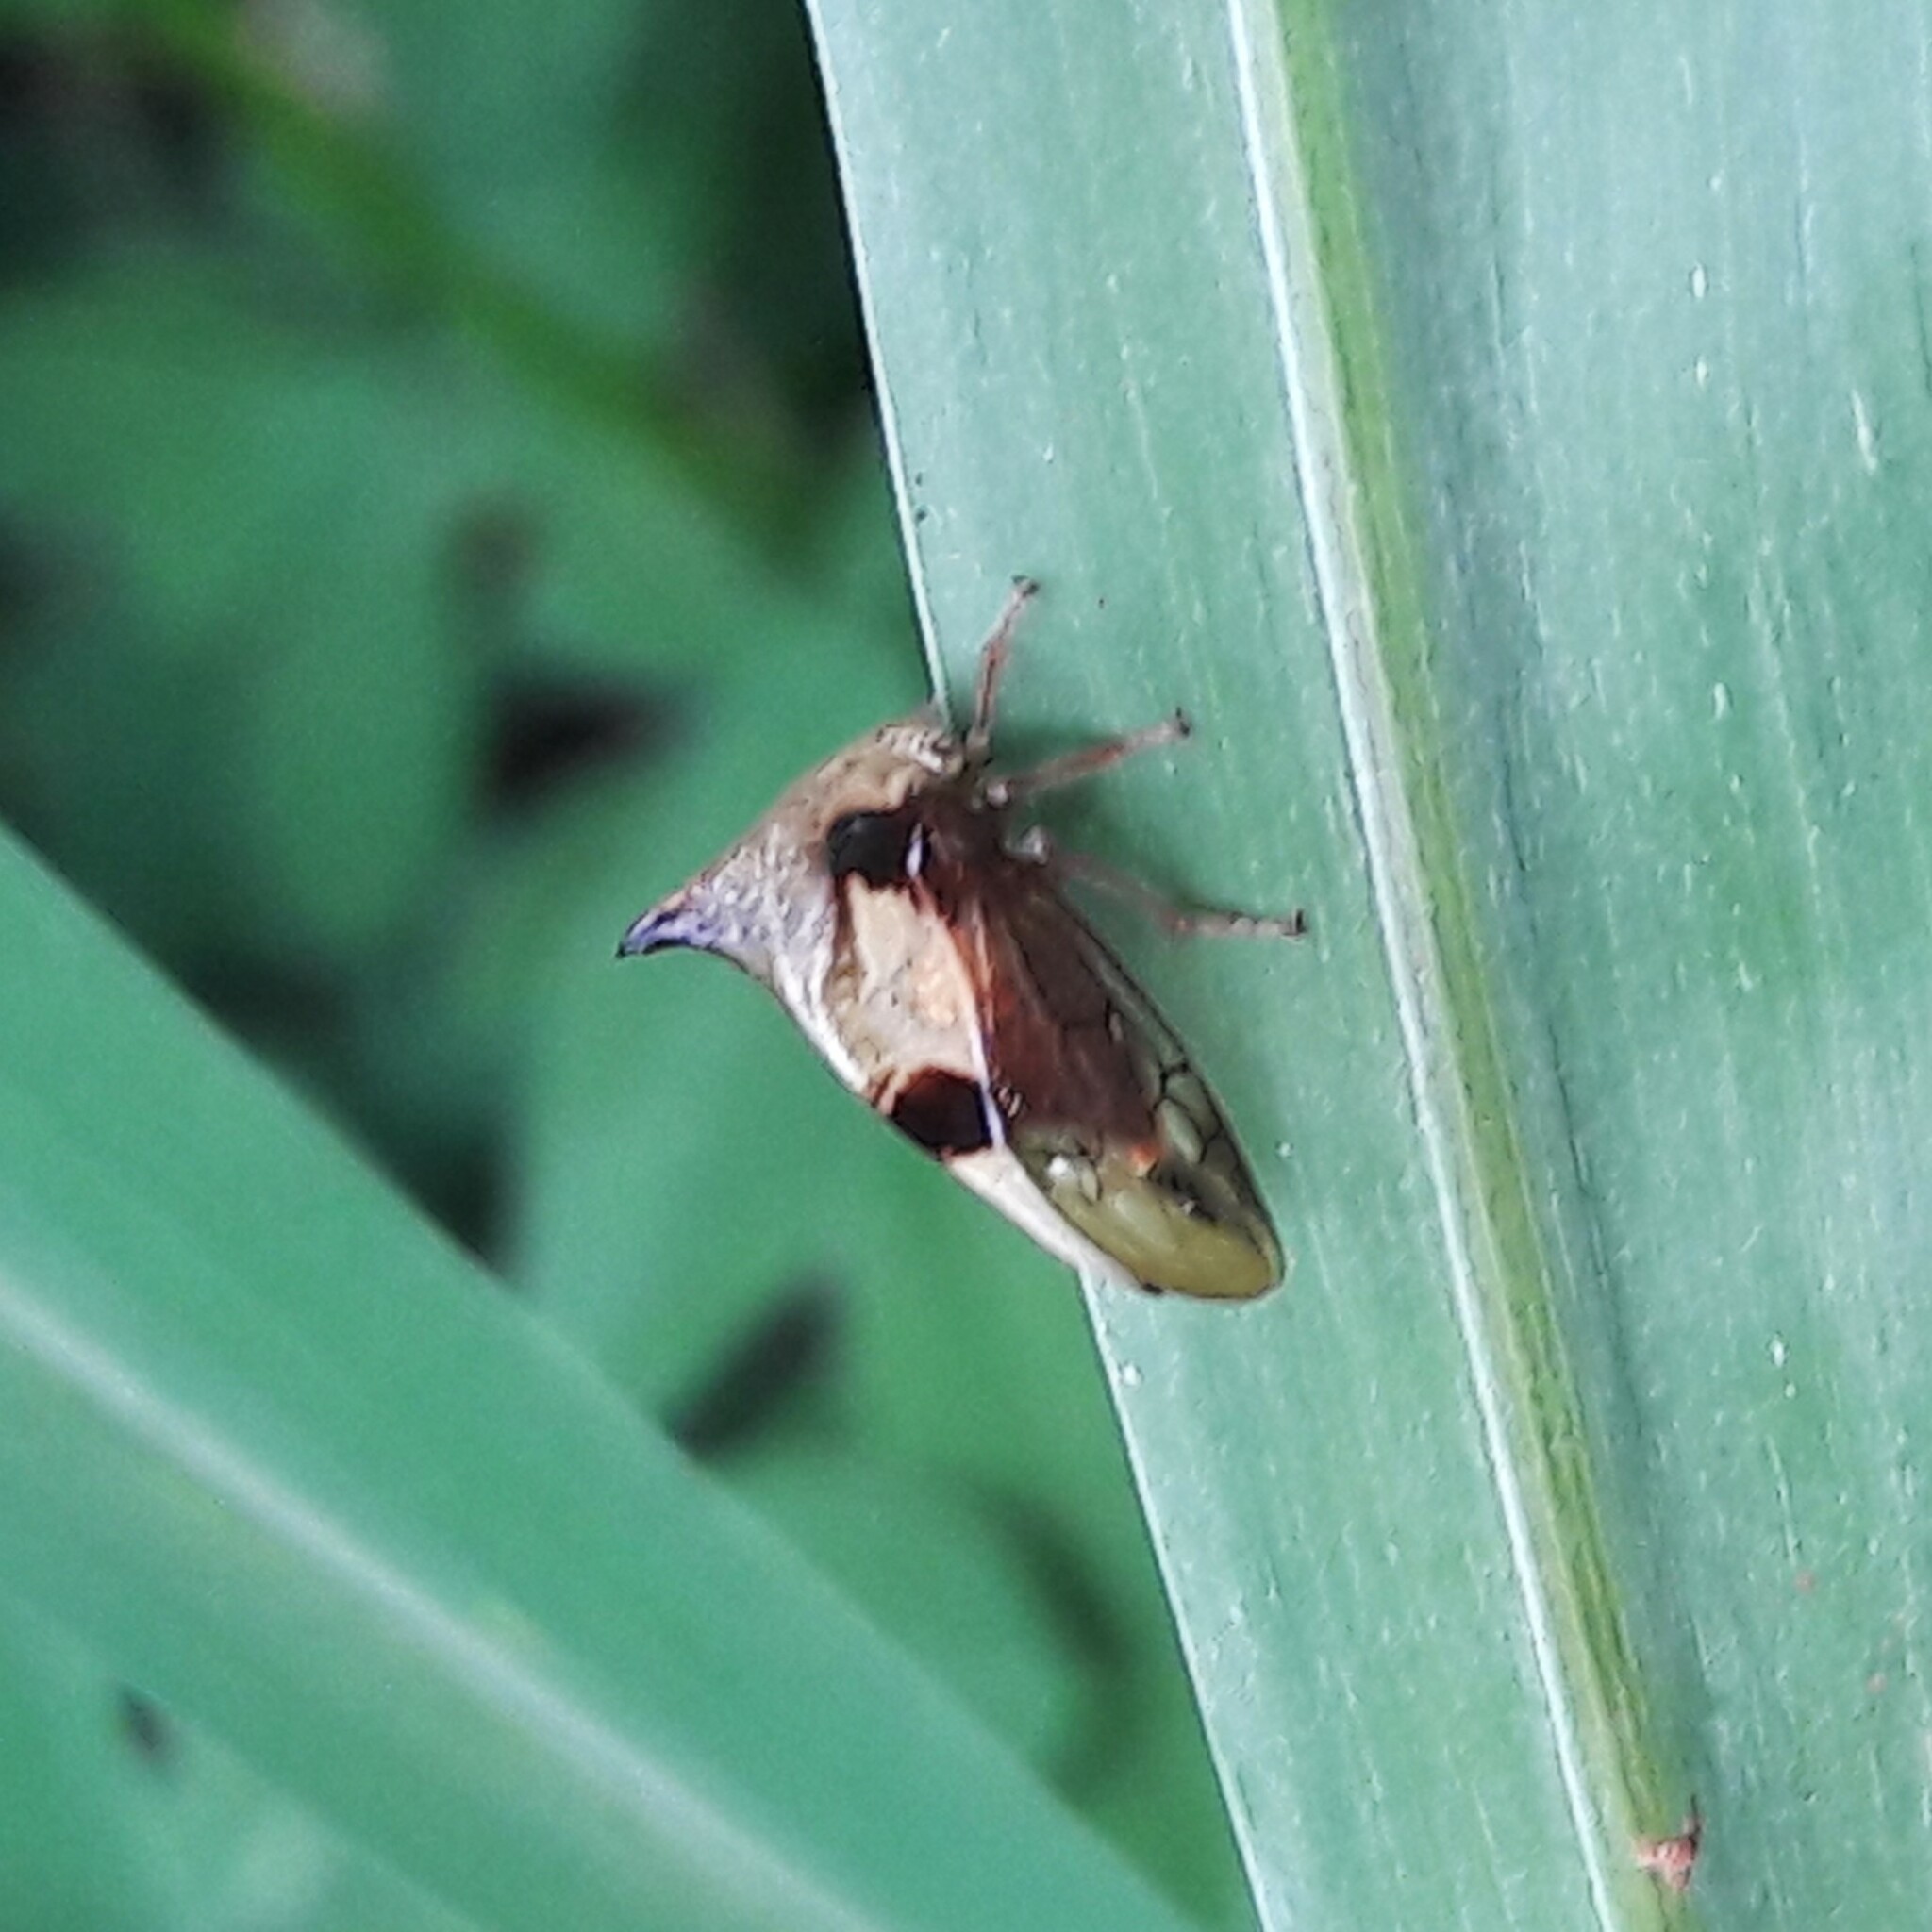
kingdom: Animalia
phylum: Arthropoda
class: Insecta
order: Hemiptera
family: Membracidae
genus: Ceresa
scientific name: Ceresa paulistana
